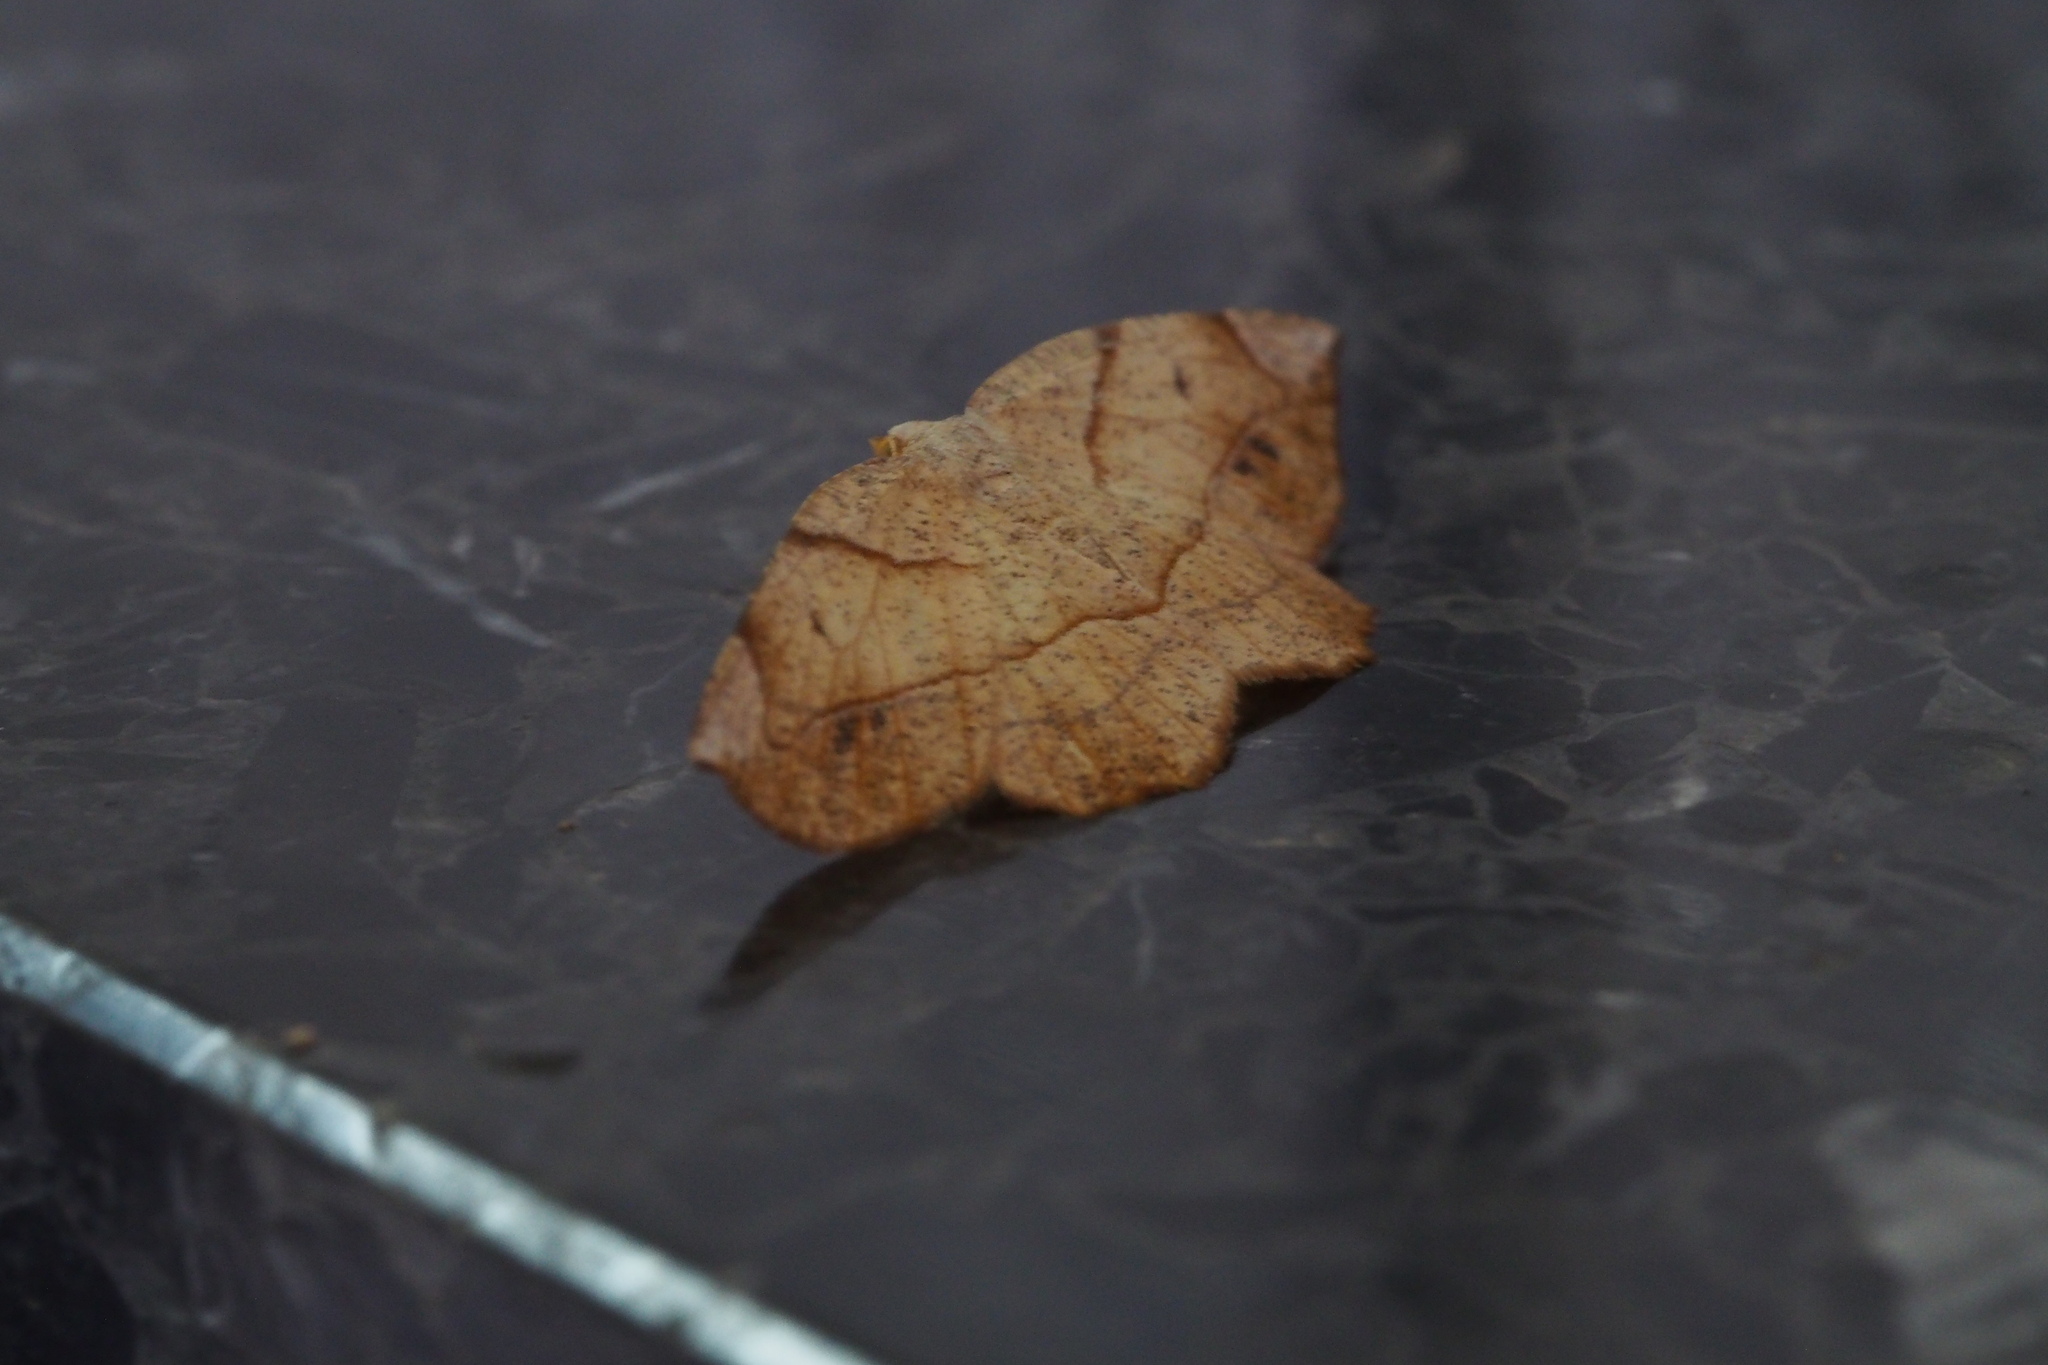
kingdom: Animalia
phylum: Arthropoda
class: Insecta
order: Lepidoptera
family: Geometridae
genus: Endropiodes
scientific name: Endropiodes indictinaria
